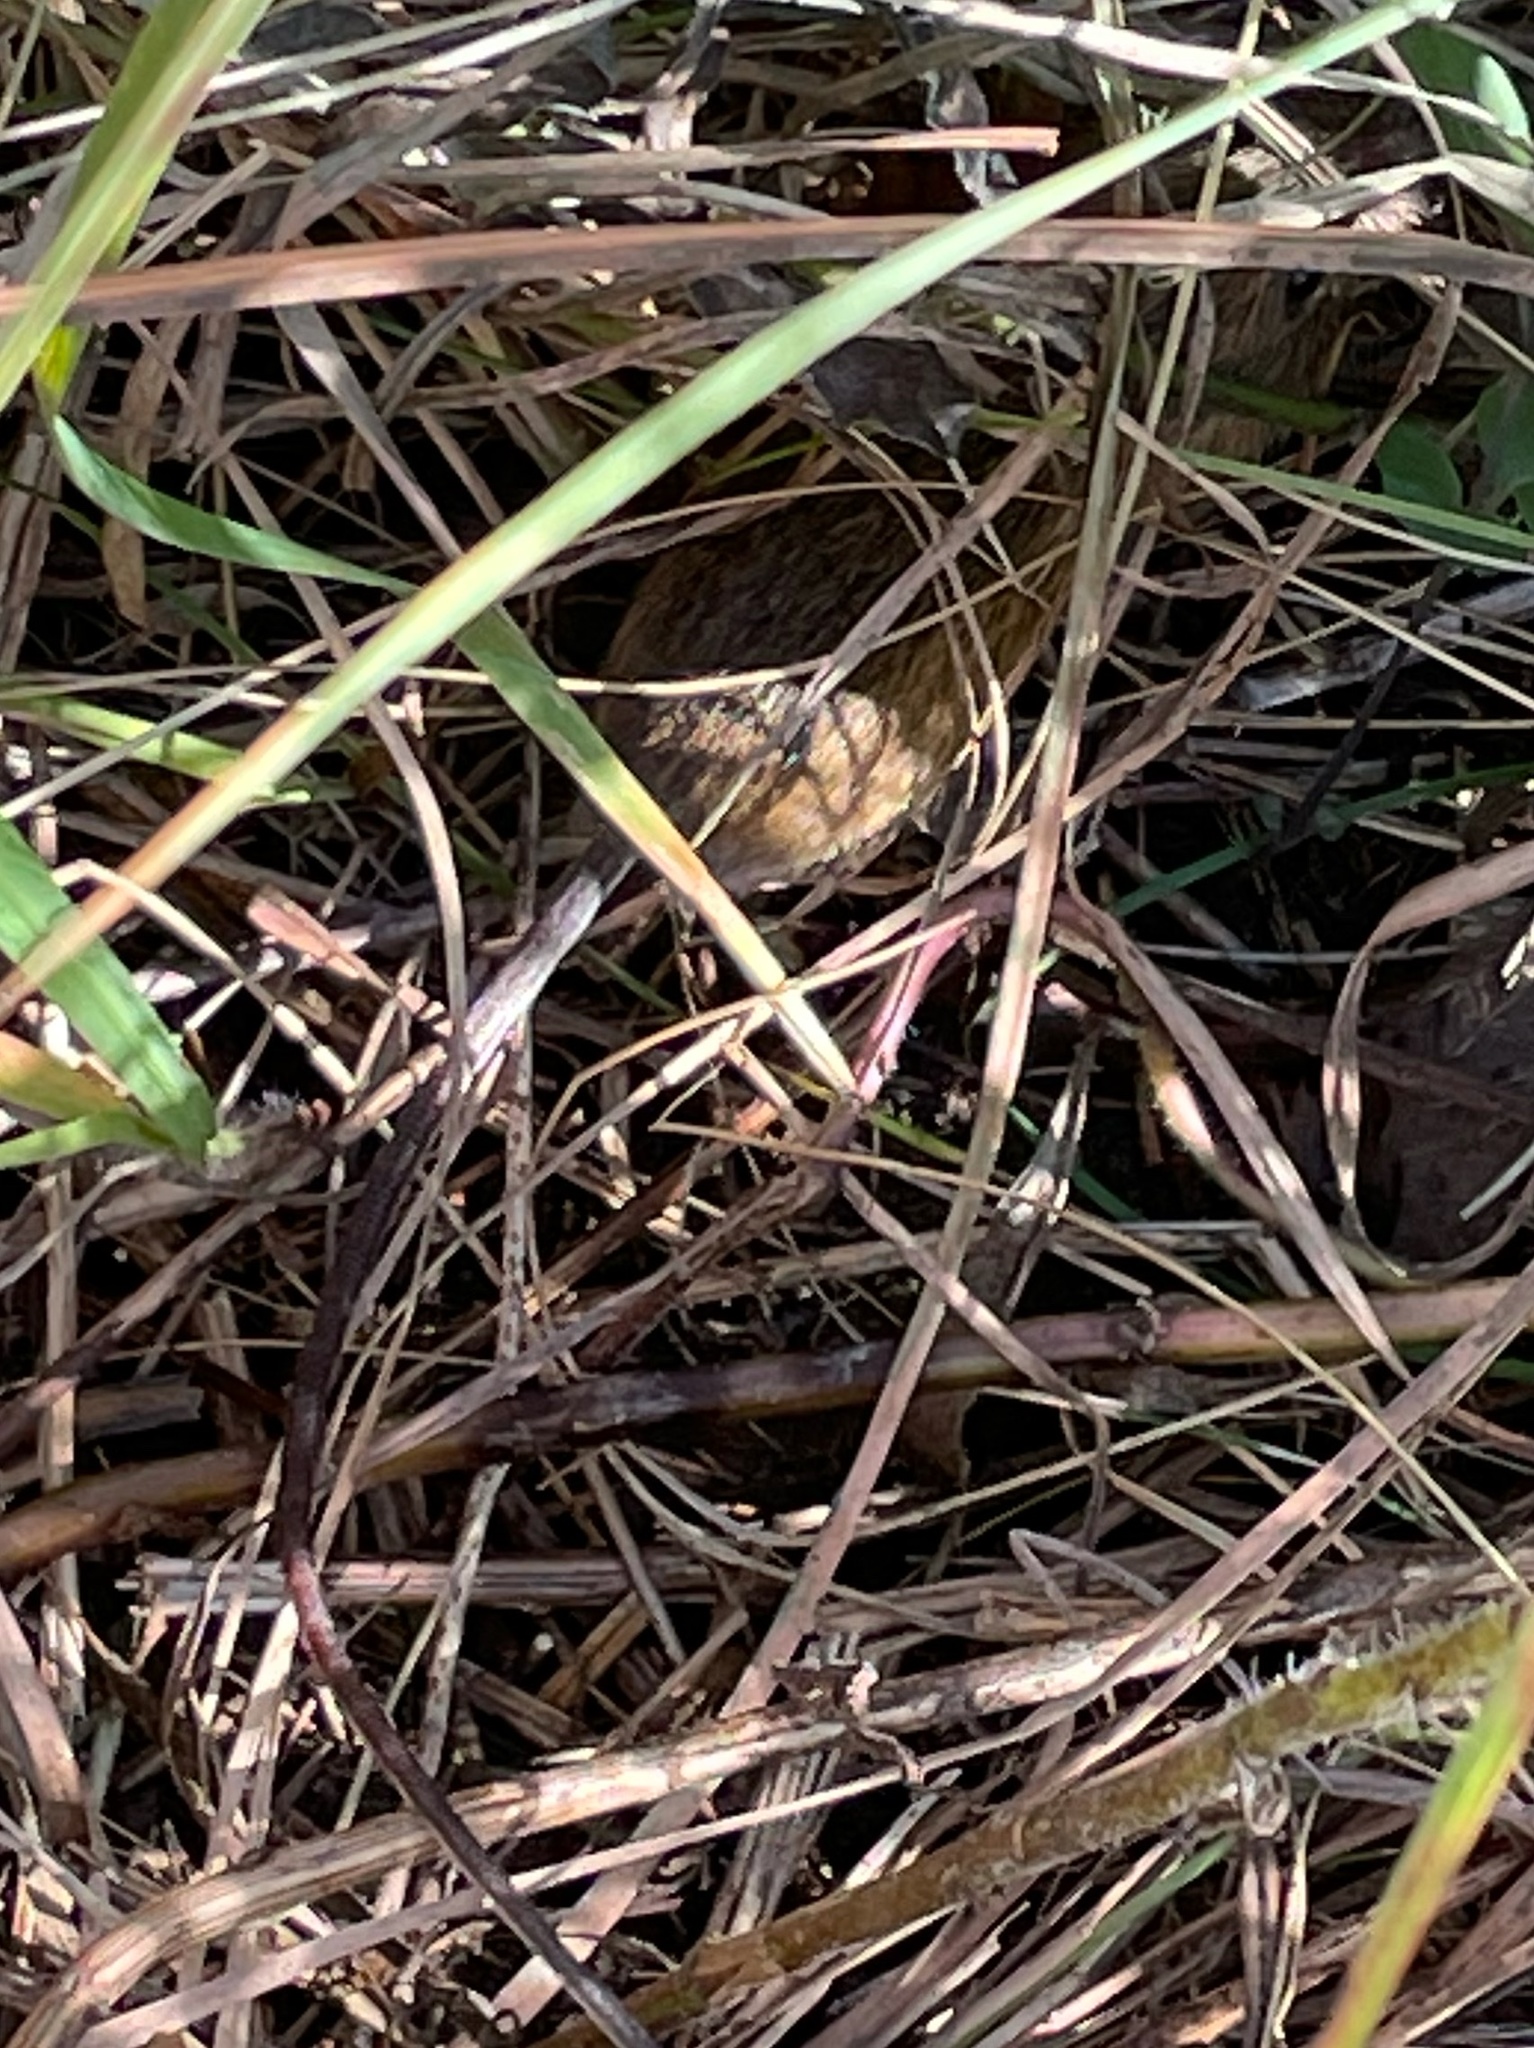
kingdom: Animalia
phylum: Chordata
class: Mammalia
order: Rodentia
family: Dipodidae
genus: Zapus
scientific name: Zapus hudsonius
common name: Meadow jumping mouse
